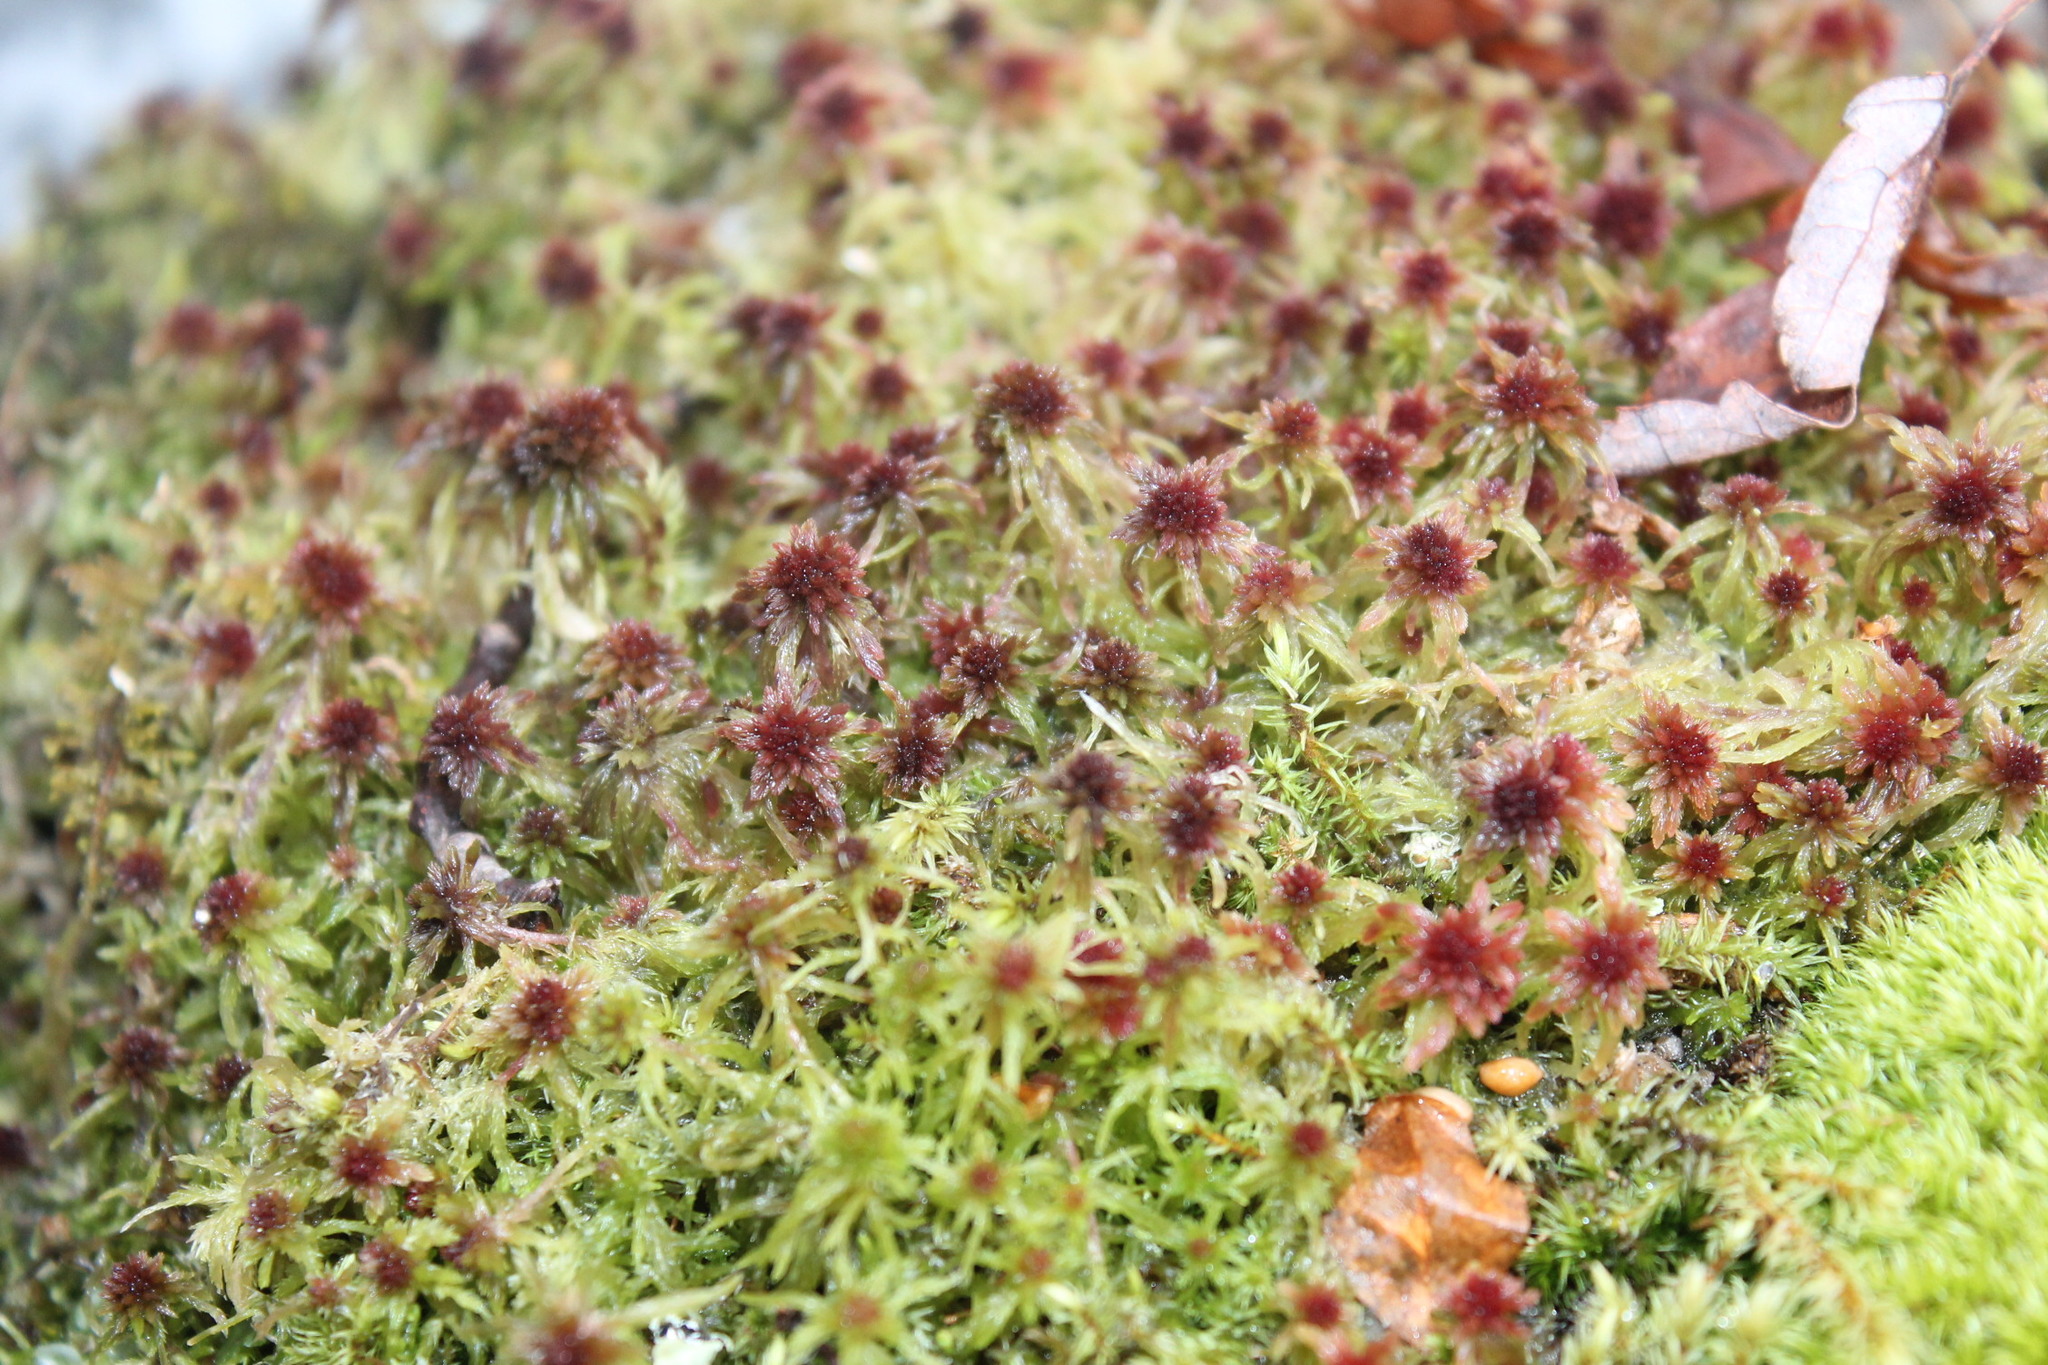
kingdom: Plantae
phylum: Bryophyta
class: Sphagnopsida
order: Sphagnales
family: Sphagnaceae
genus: Sphagnum
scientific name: Sphagnum palustre
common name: Blunt-leaved bog-moss
